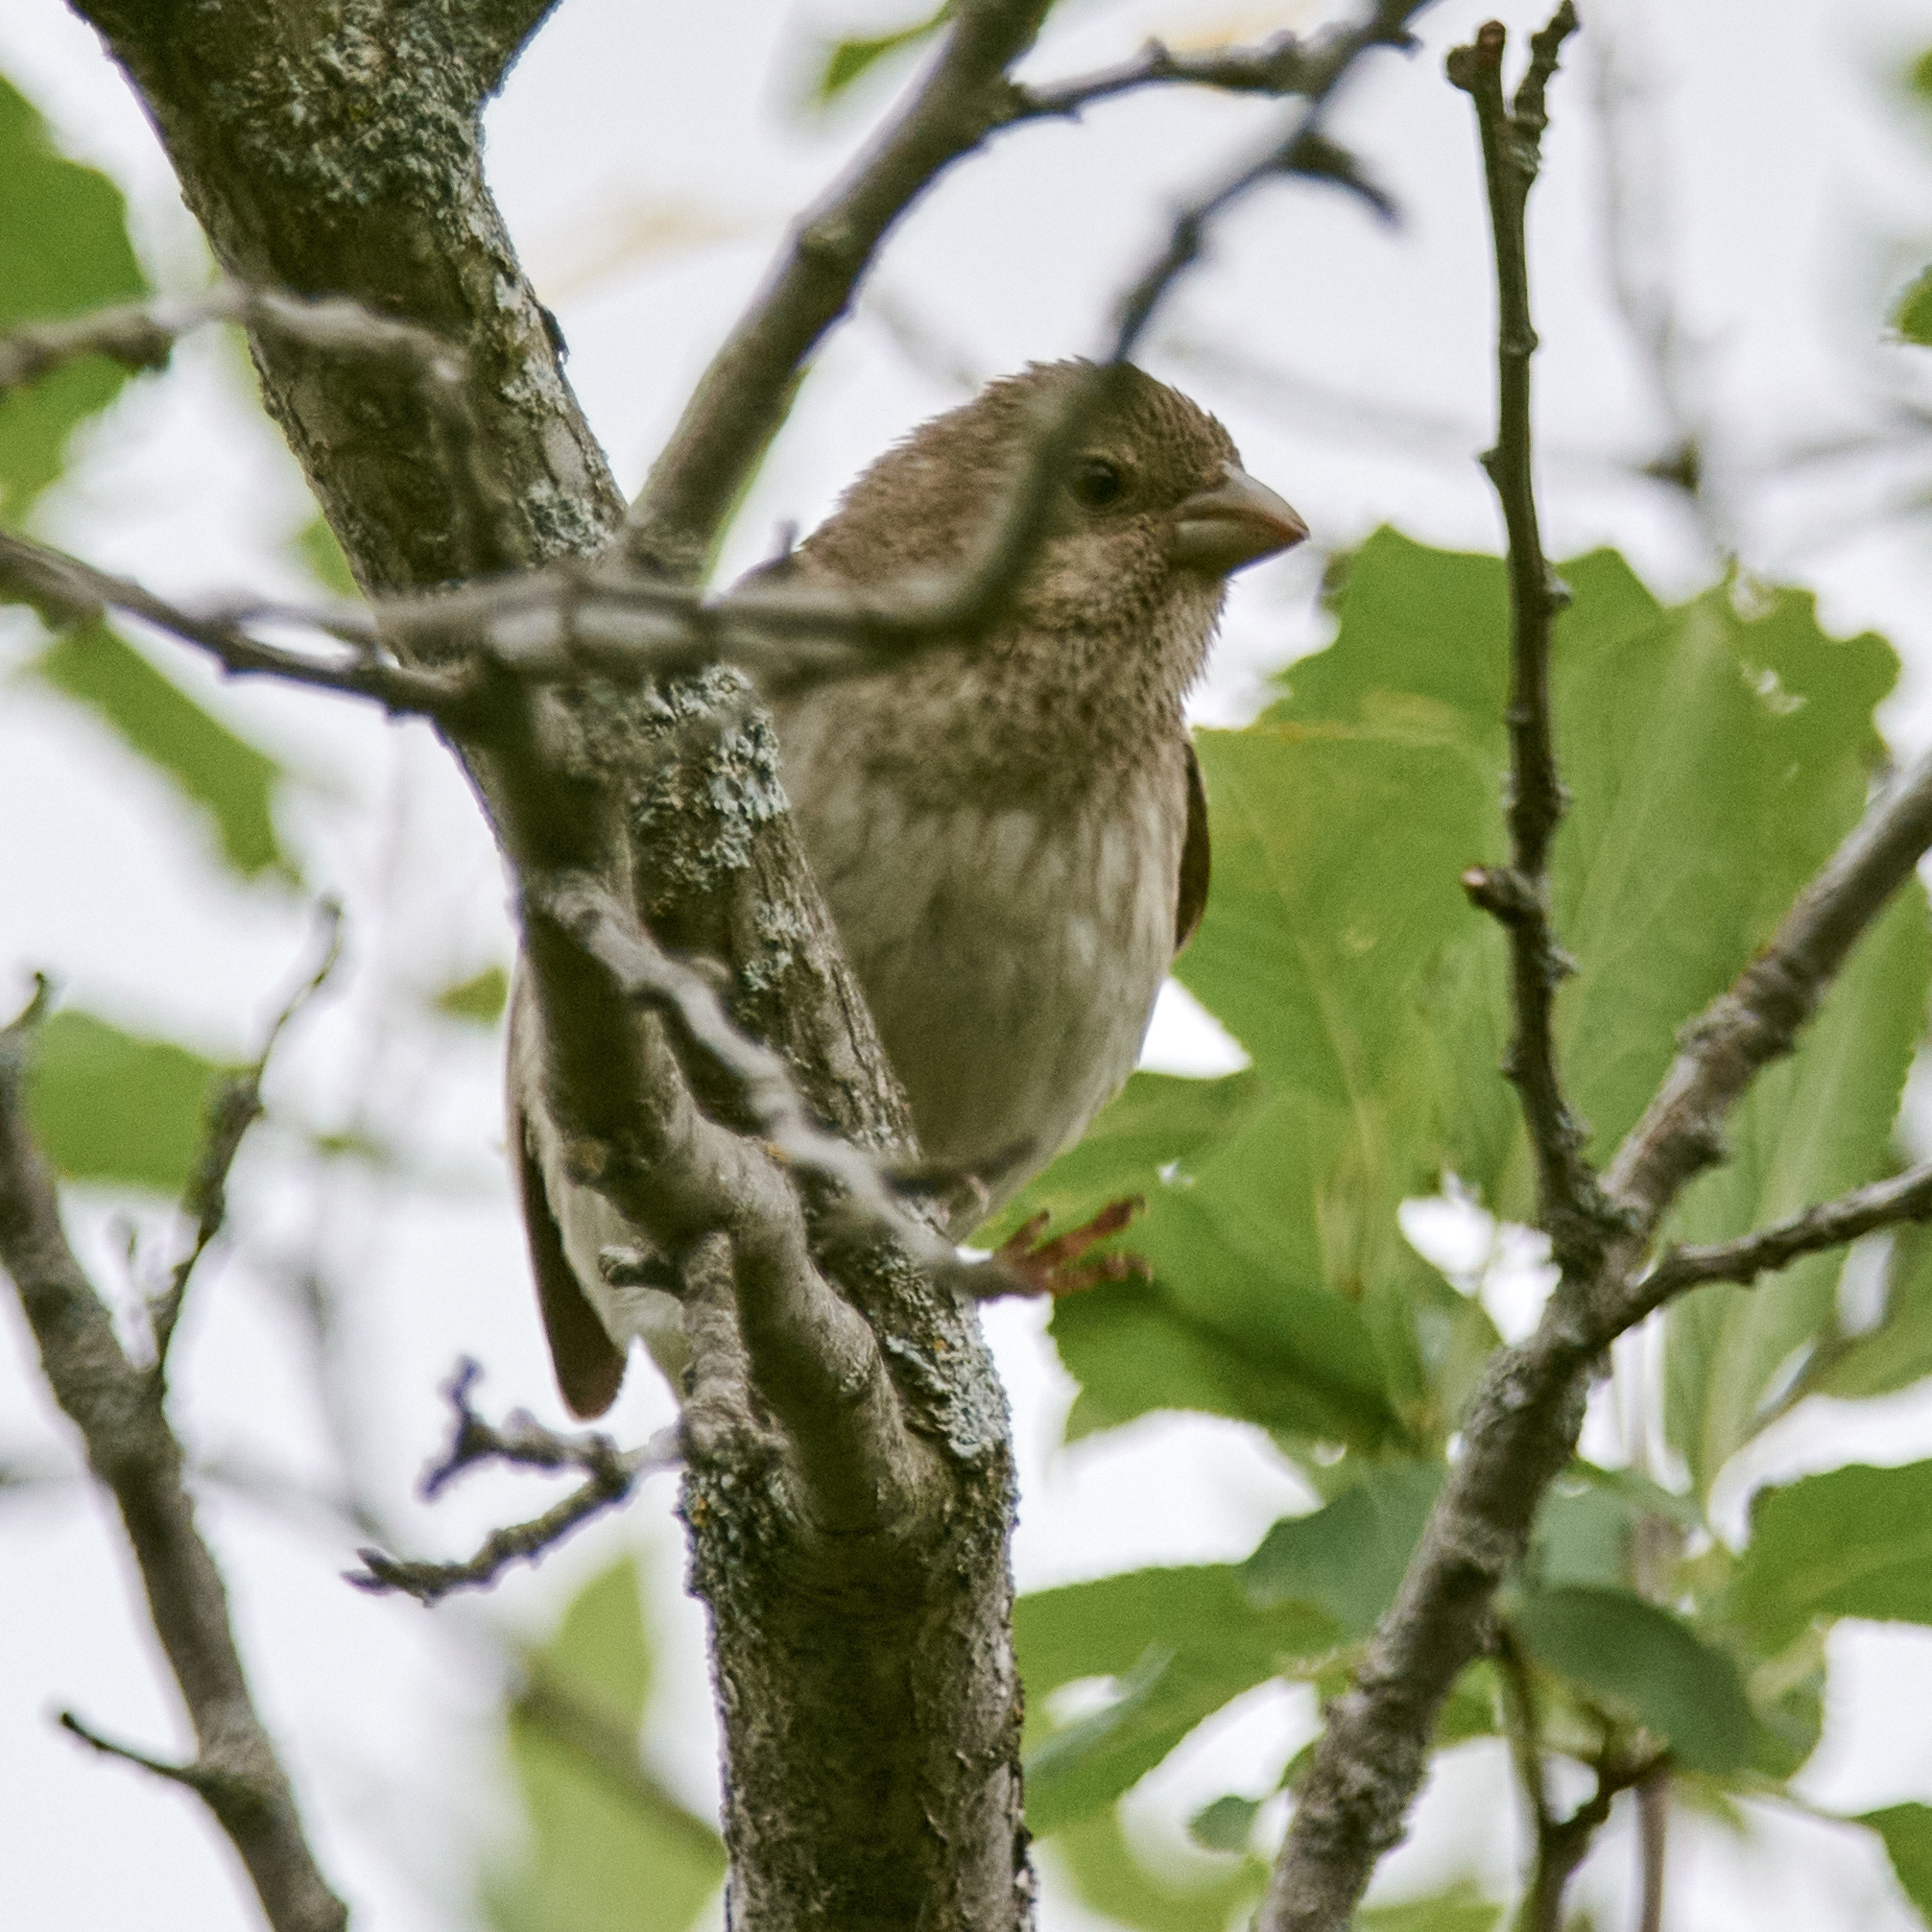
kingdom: Animalia
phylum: Chordata
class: Aves
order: Passeriformes
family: Fringillidae
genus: Carpodacus
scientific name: Carpodacus erythrinus
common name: Common rosefinch
